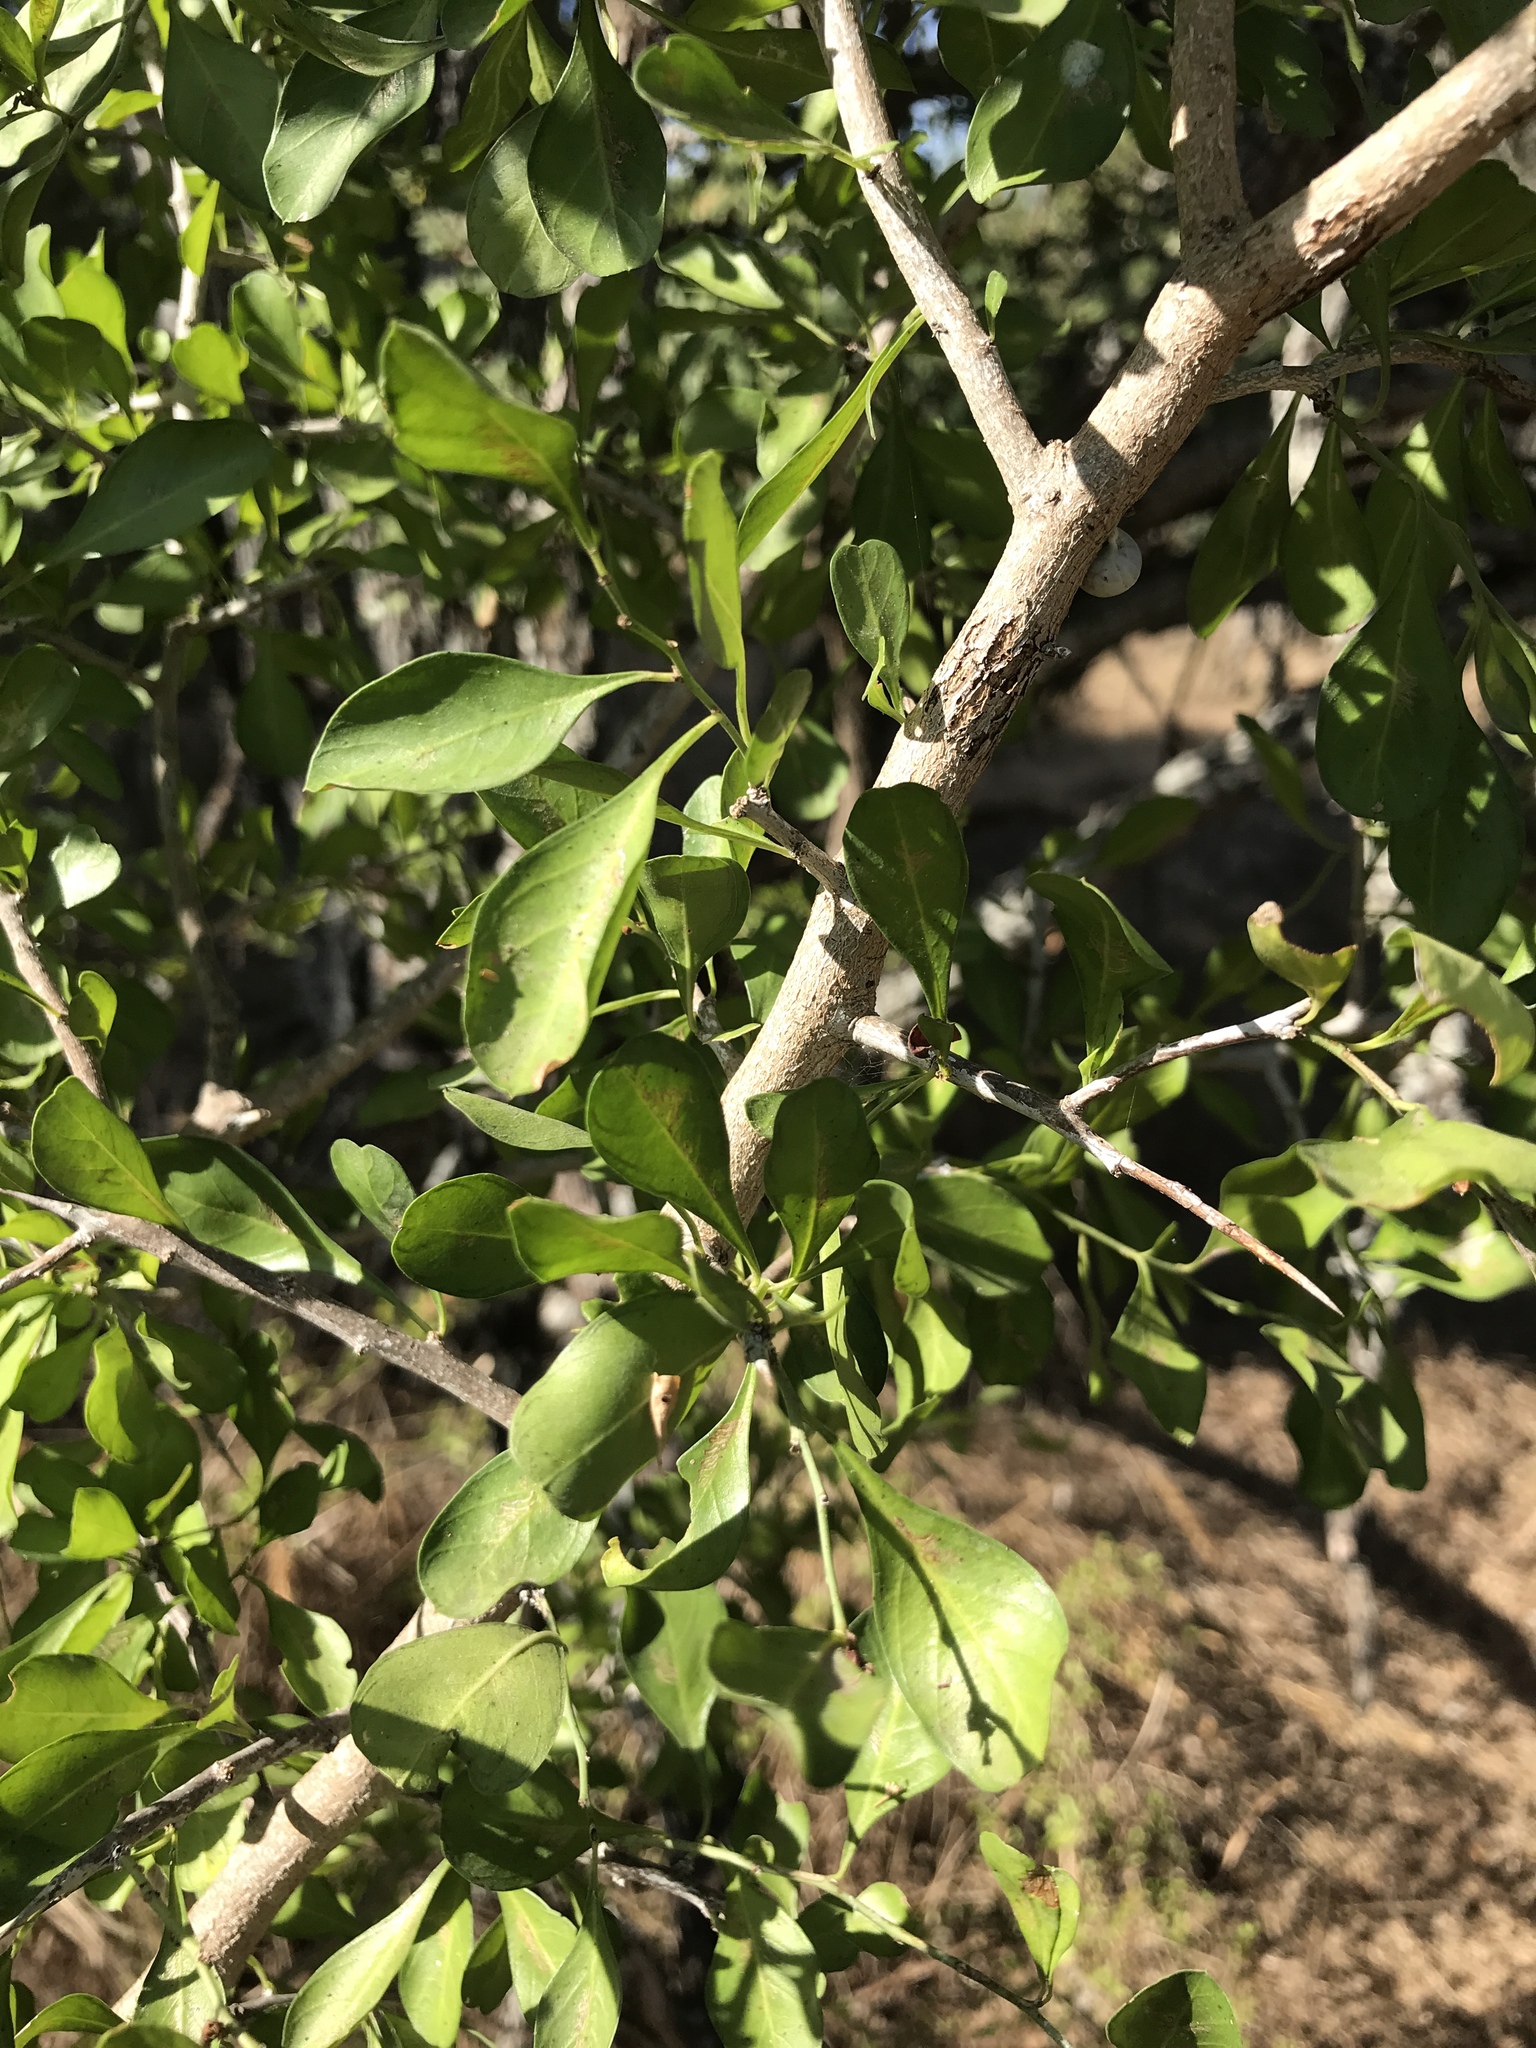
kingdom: Plantae
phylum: Tracheophyta
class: Magnoliopsida
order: Rosales
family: Rhamnaceae
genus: Condalia
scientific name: Condalia hookeri
